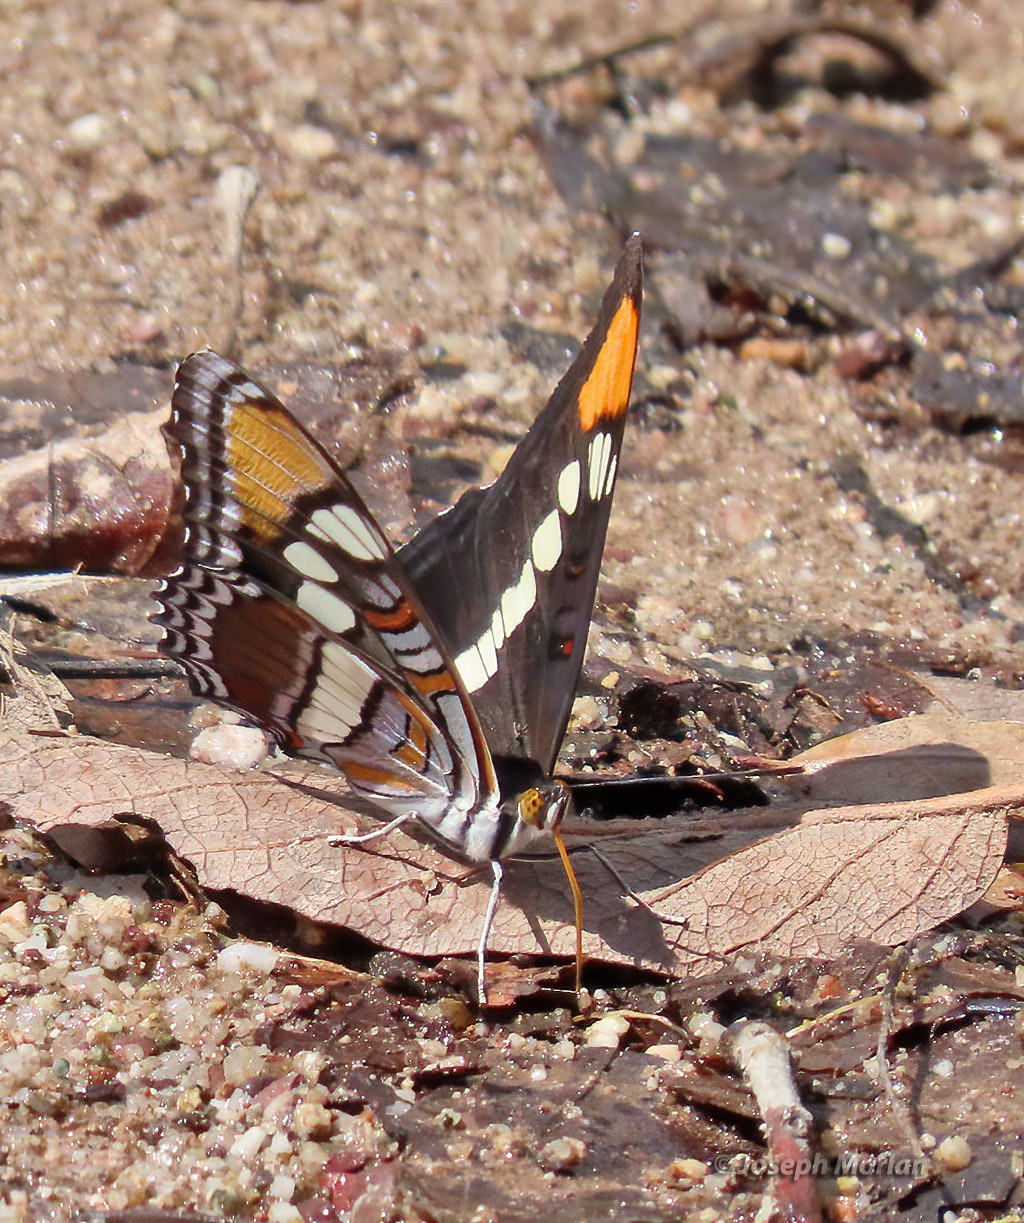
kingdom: Animalia
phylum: Arthropoda
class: Insecta
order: Lepidoptera
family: Nymphalidae
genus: Limenitis
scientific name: Limenitis bredowii
